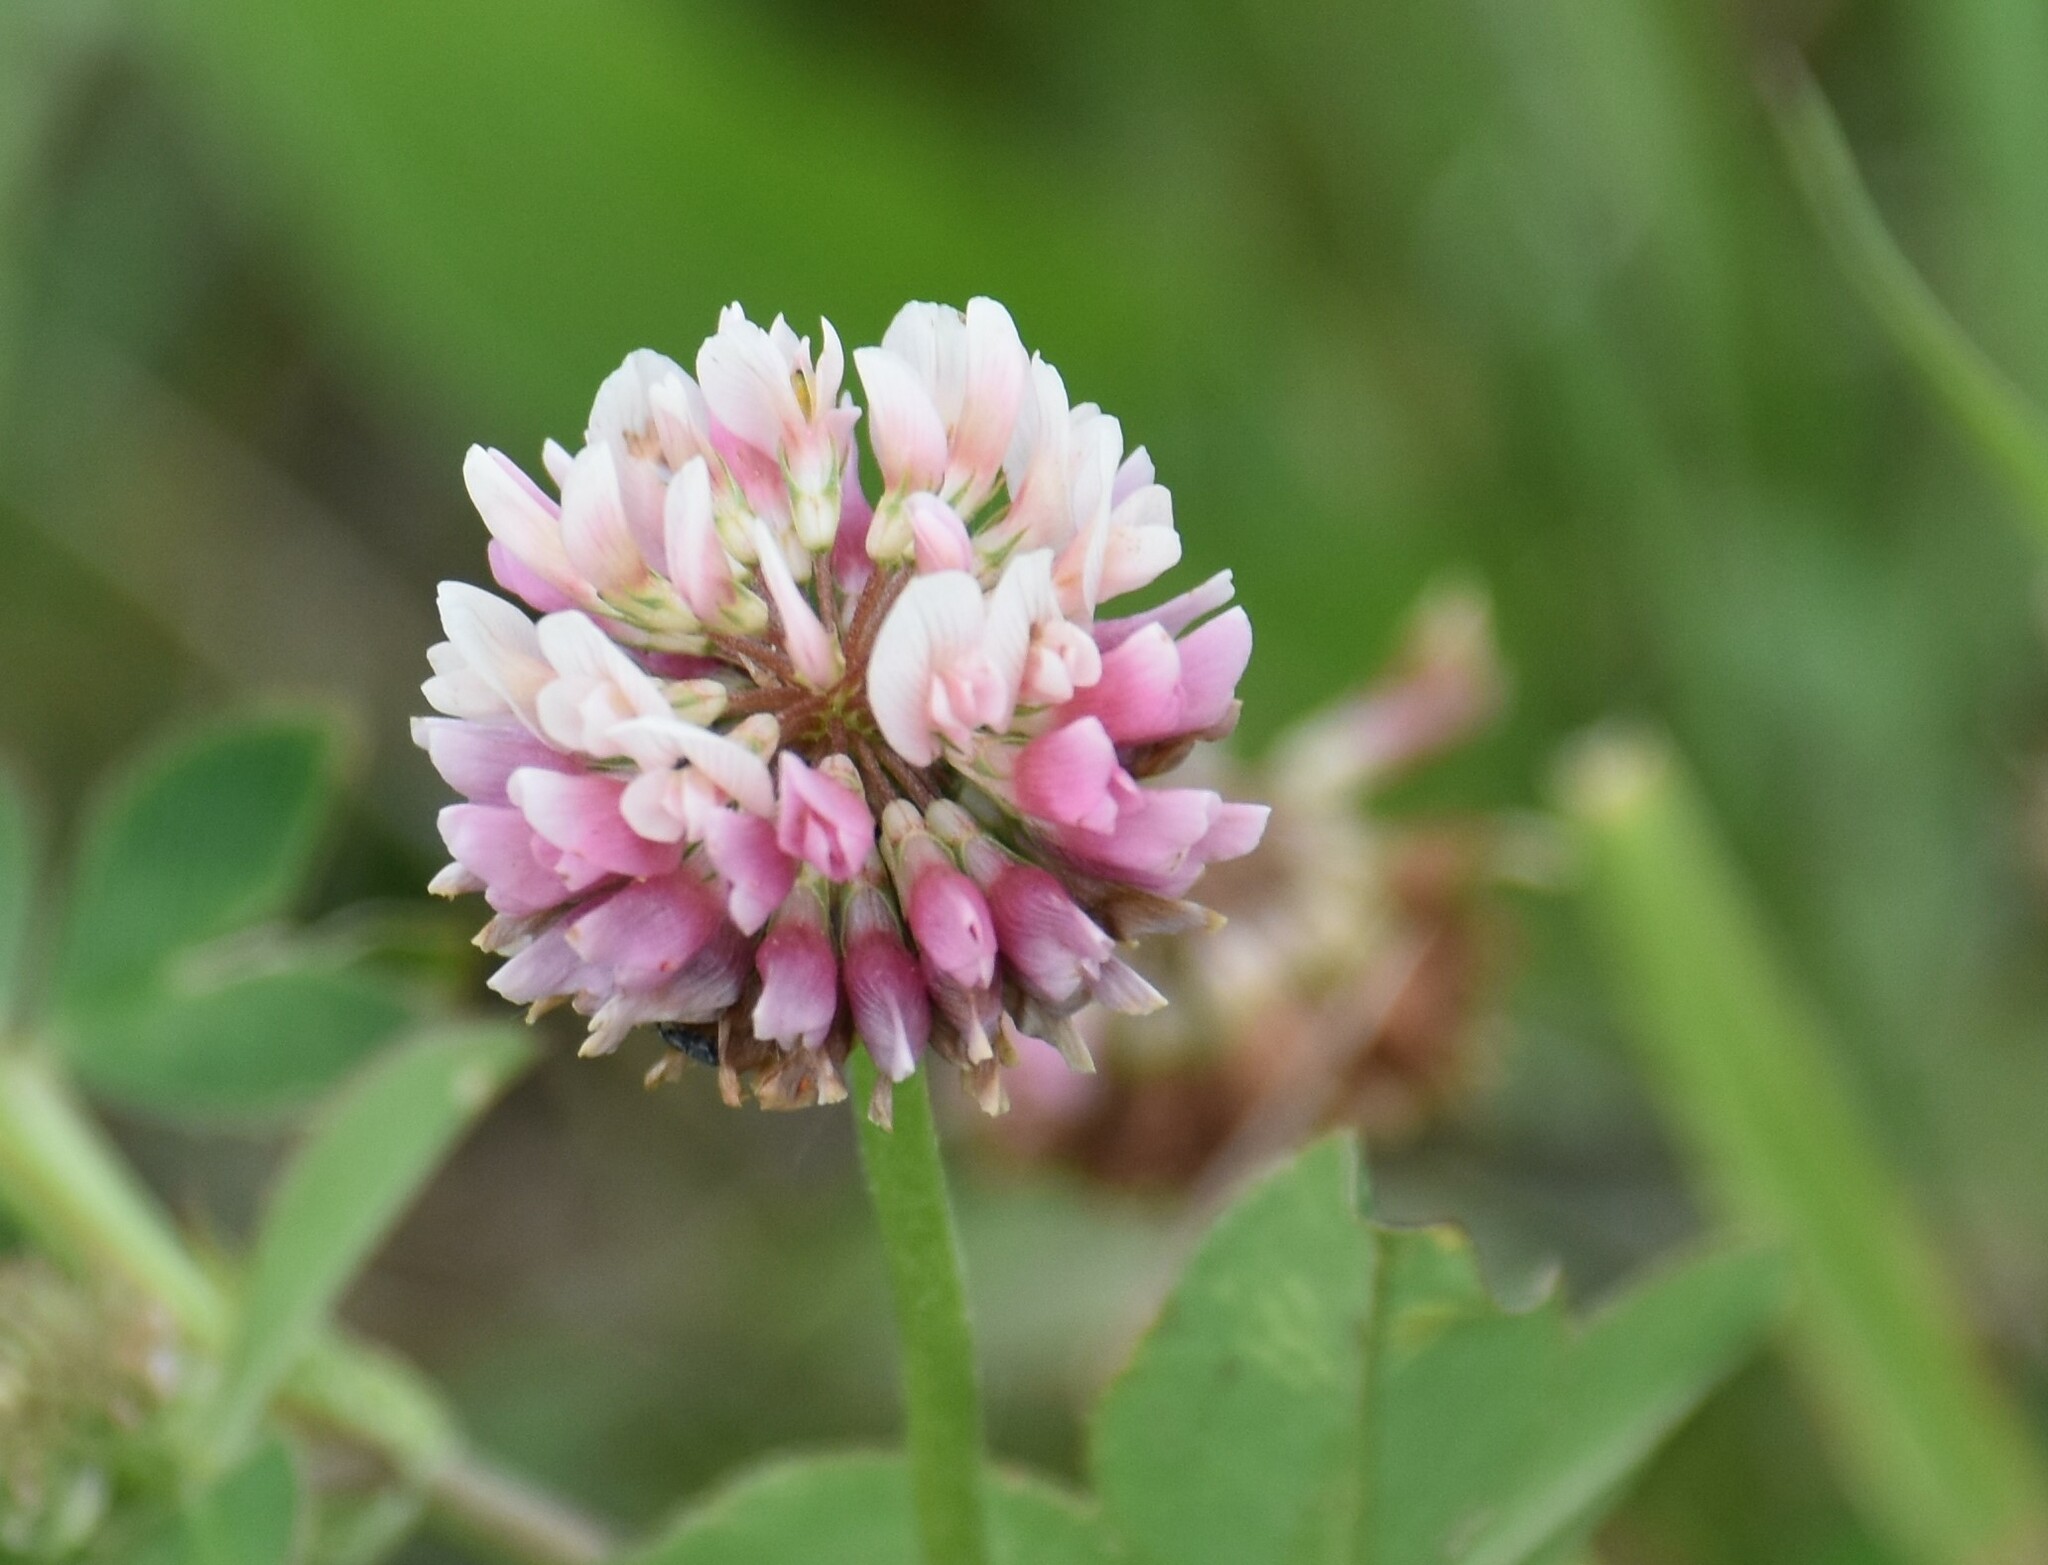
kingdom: Plantae
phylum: Tracheophyta
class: Magnoliopsida
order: Fabales
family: Fabaceae
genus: Trifolium
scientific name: Trifolium hybridum
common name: Alsike clover
